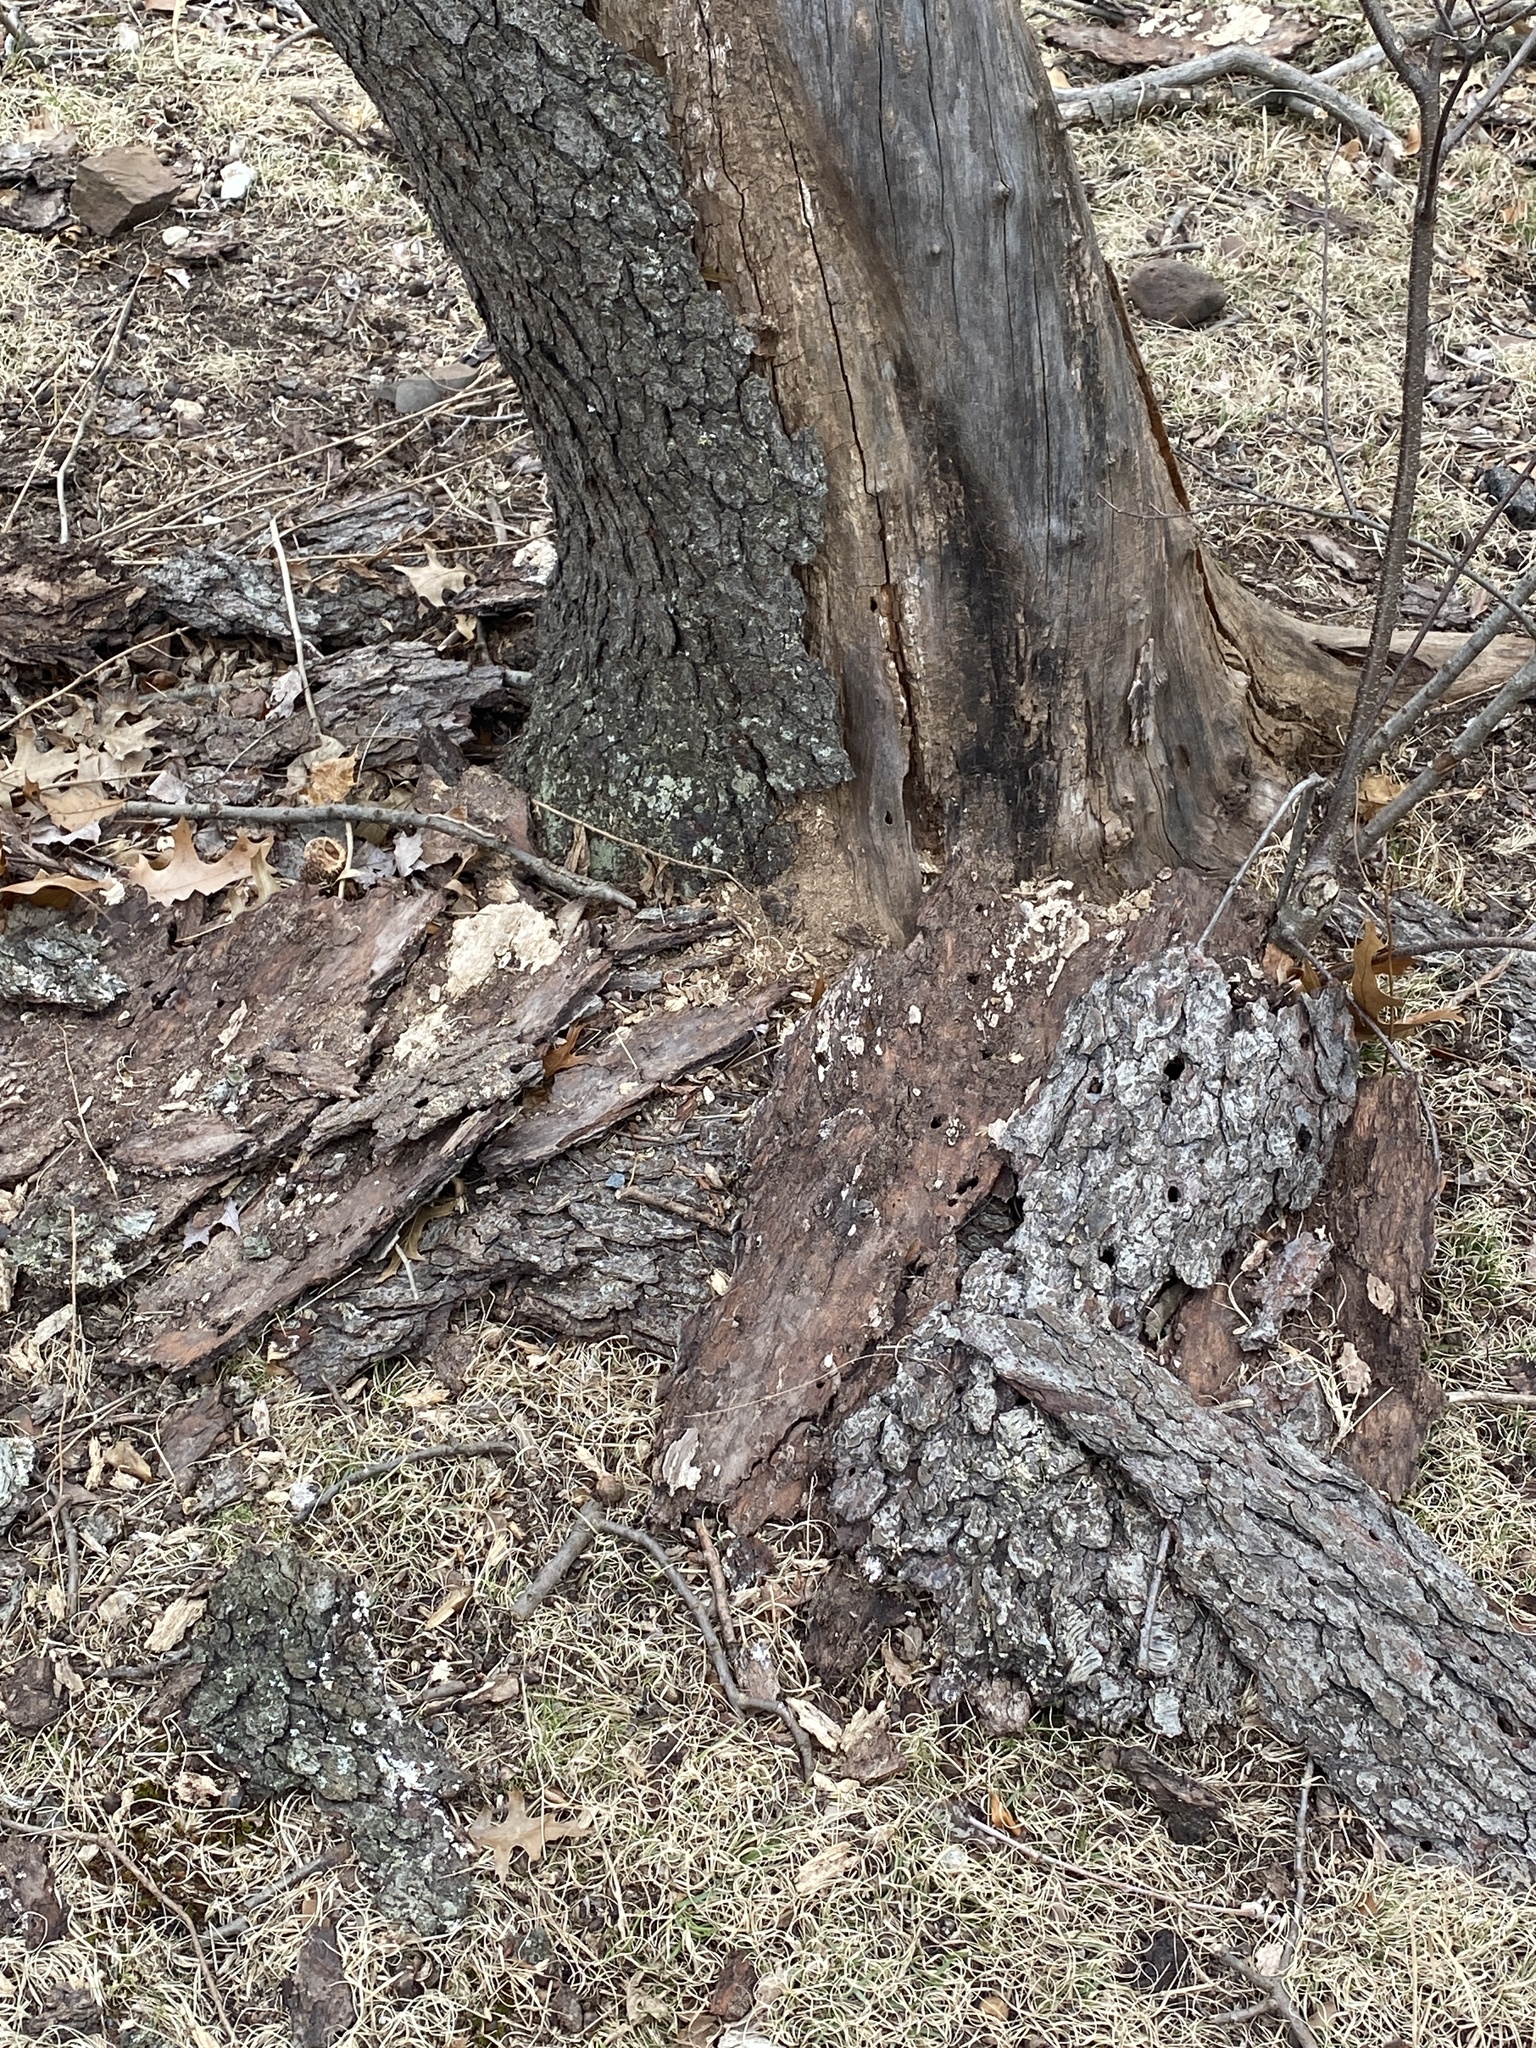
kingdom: Plantae
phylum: Tracheophyta
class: Magnoliopsida
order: Rosales
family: Rosaceae
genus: Prunus
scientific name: Prunus serotina
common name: Black cherry
